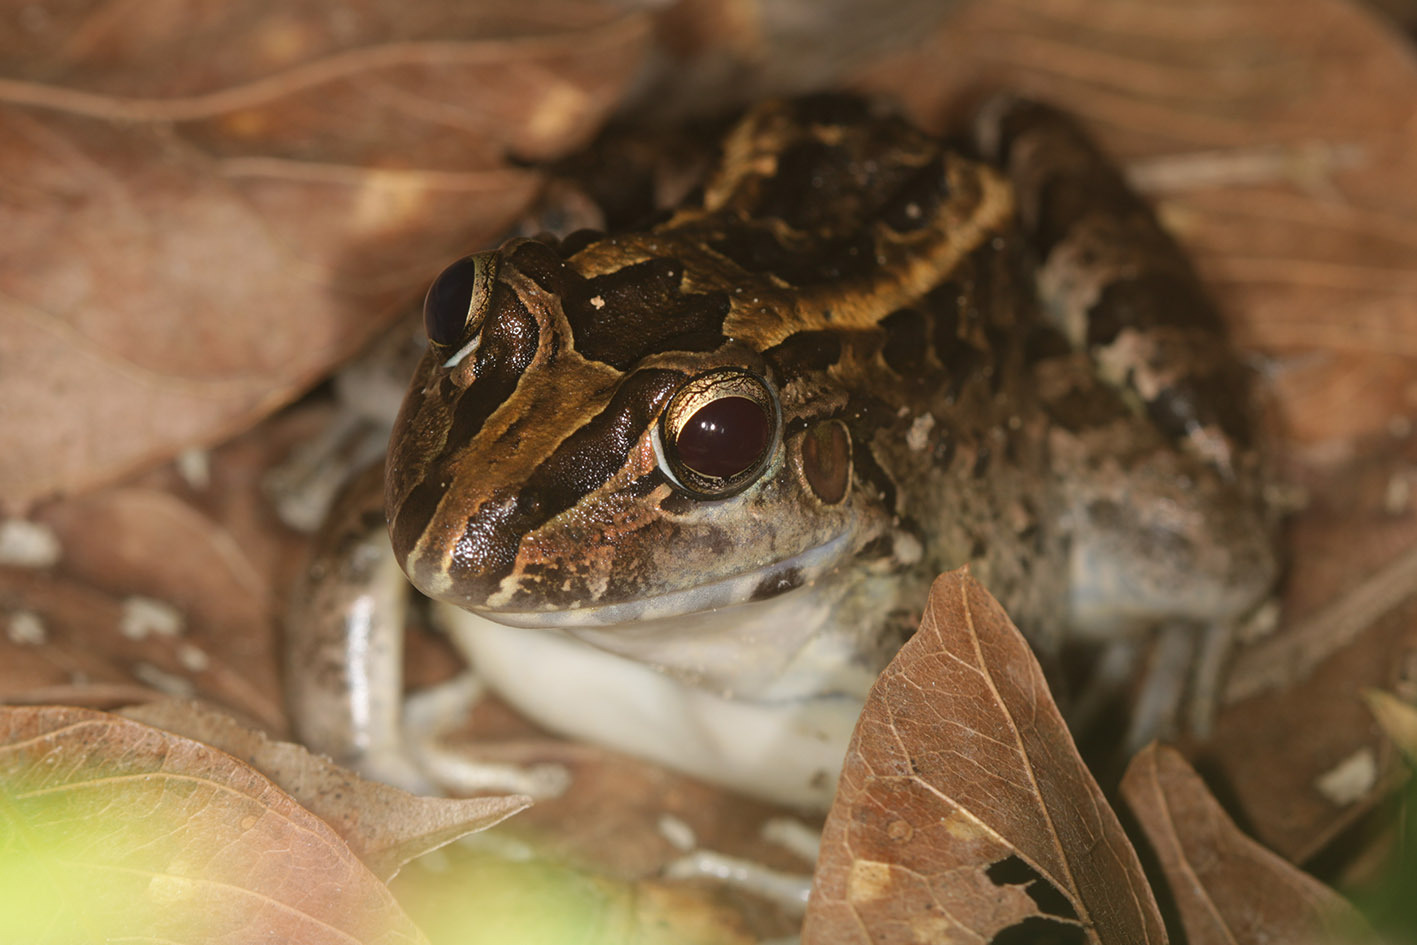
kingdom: Animalia
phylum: Chordata
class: Amphibia
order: Anura
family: Leptodactylidae
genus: Leptodactylus
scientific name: Leptodactylus macrosternum
